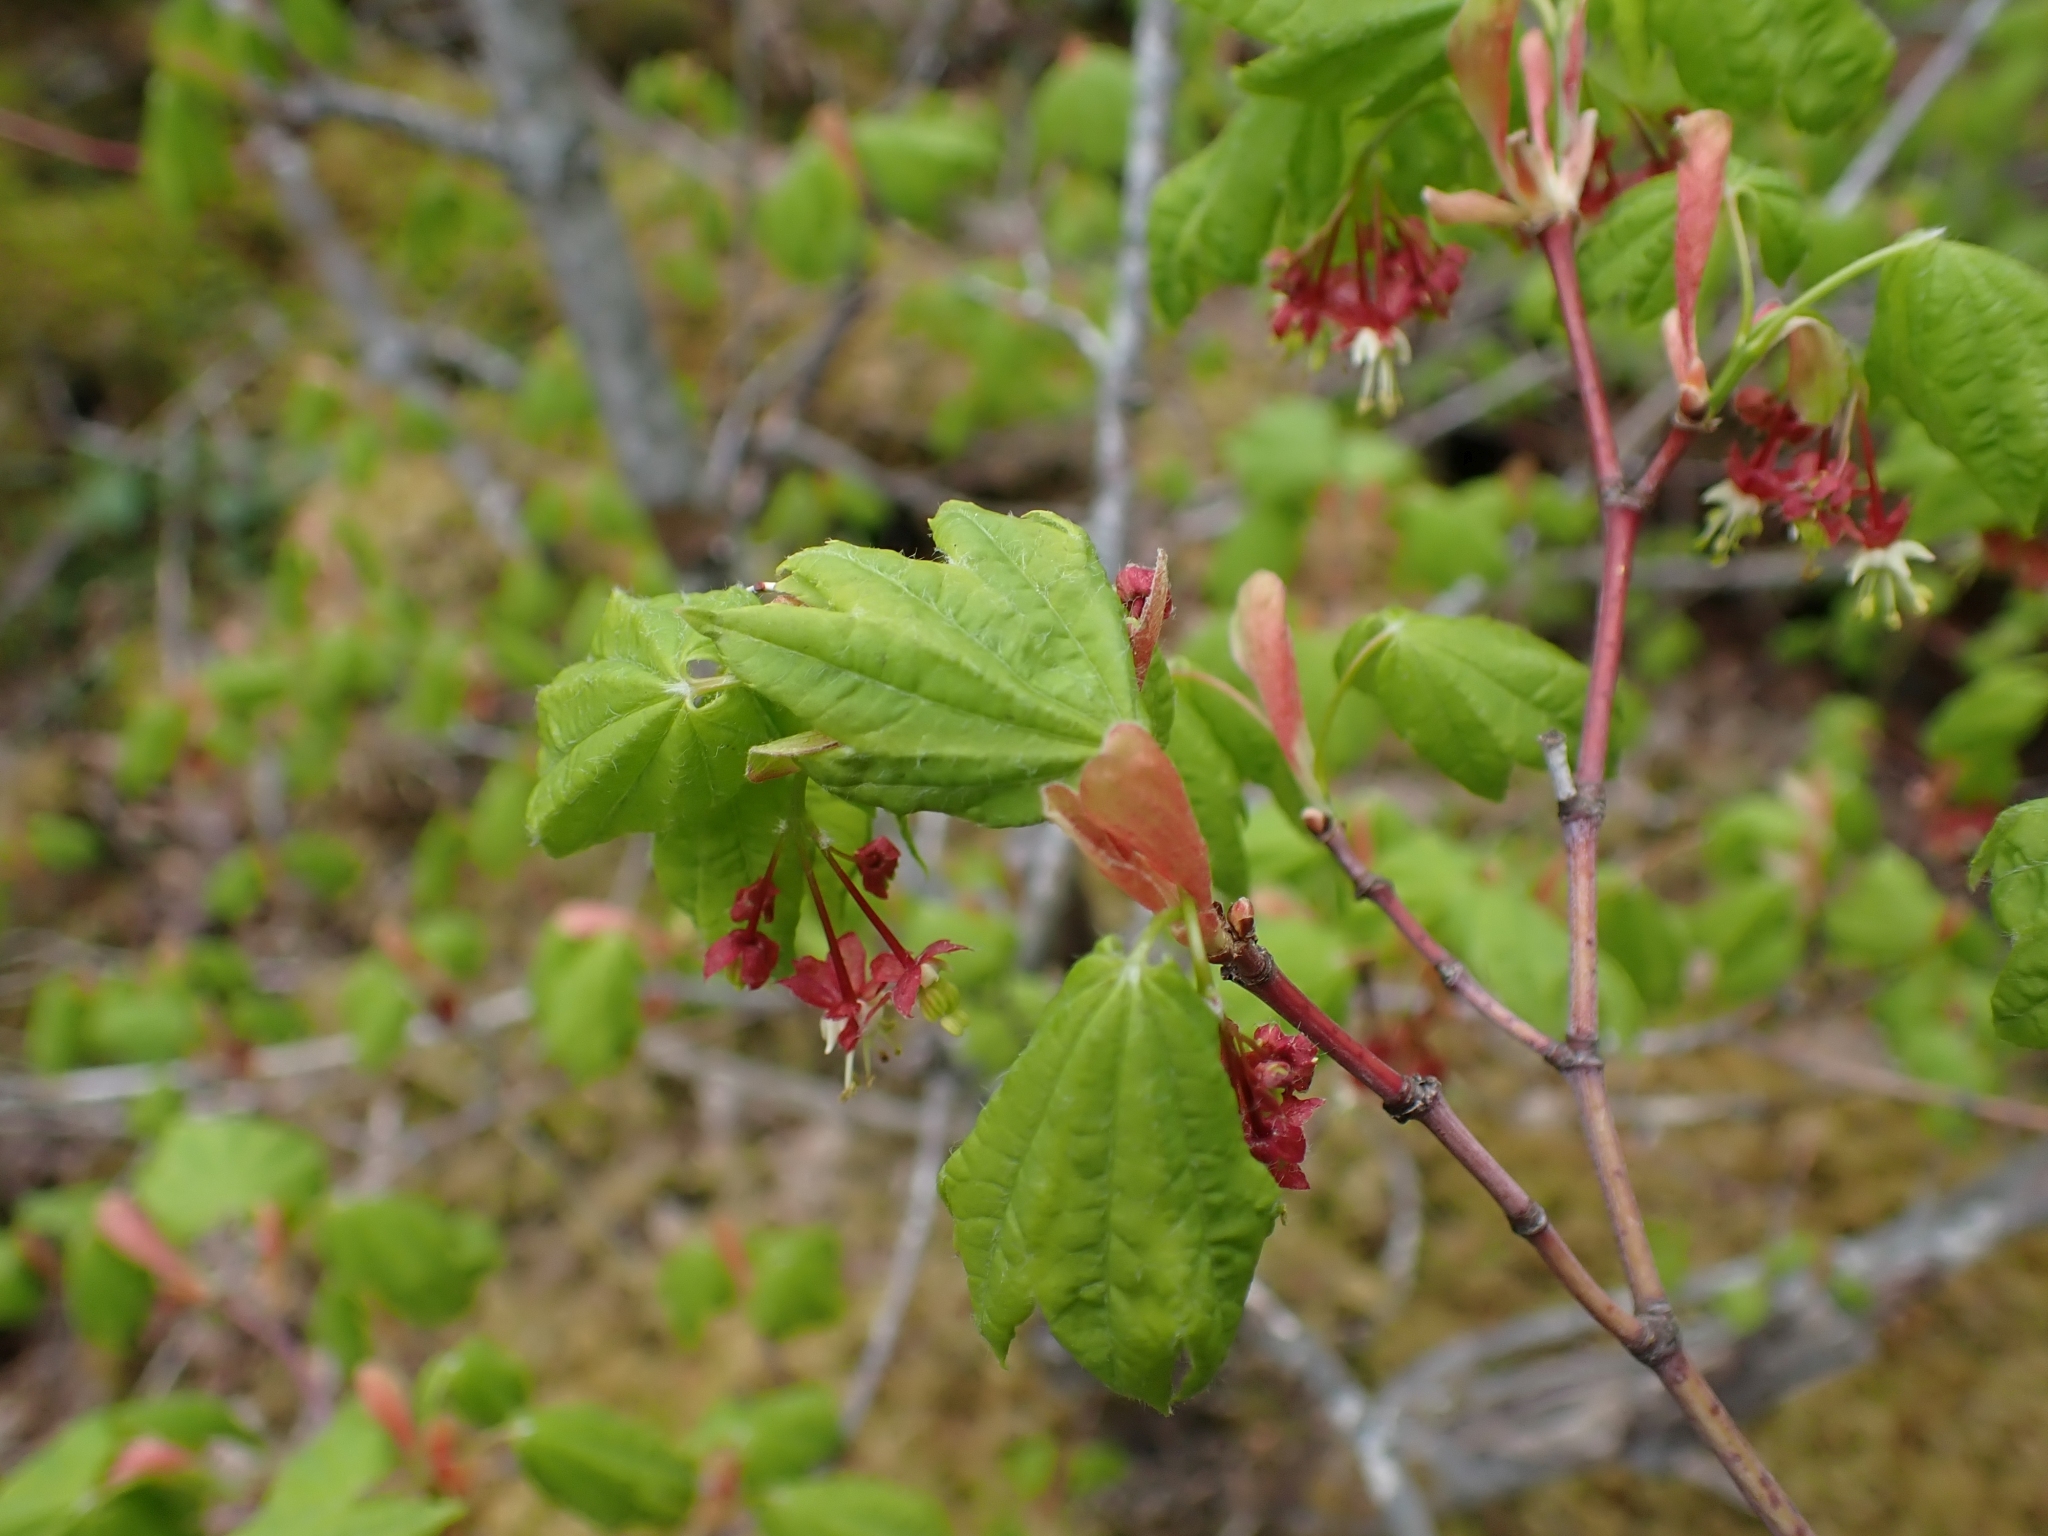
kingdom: Plantae
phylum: Tracheophyta
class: Magnoliopsida
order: Sapindales
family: Sapindaceae
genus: Acer
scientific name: Acer circinatum
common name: Vine maple
